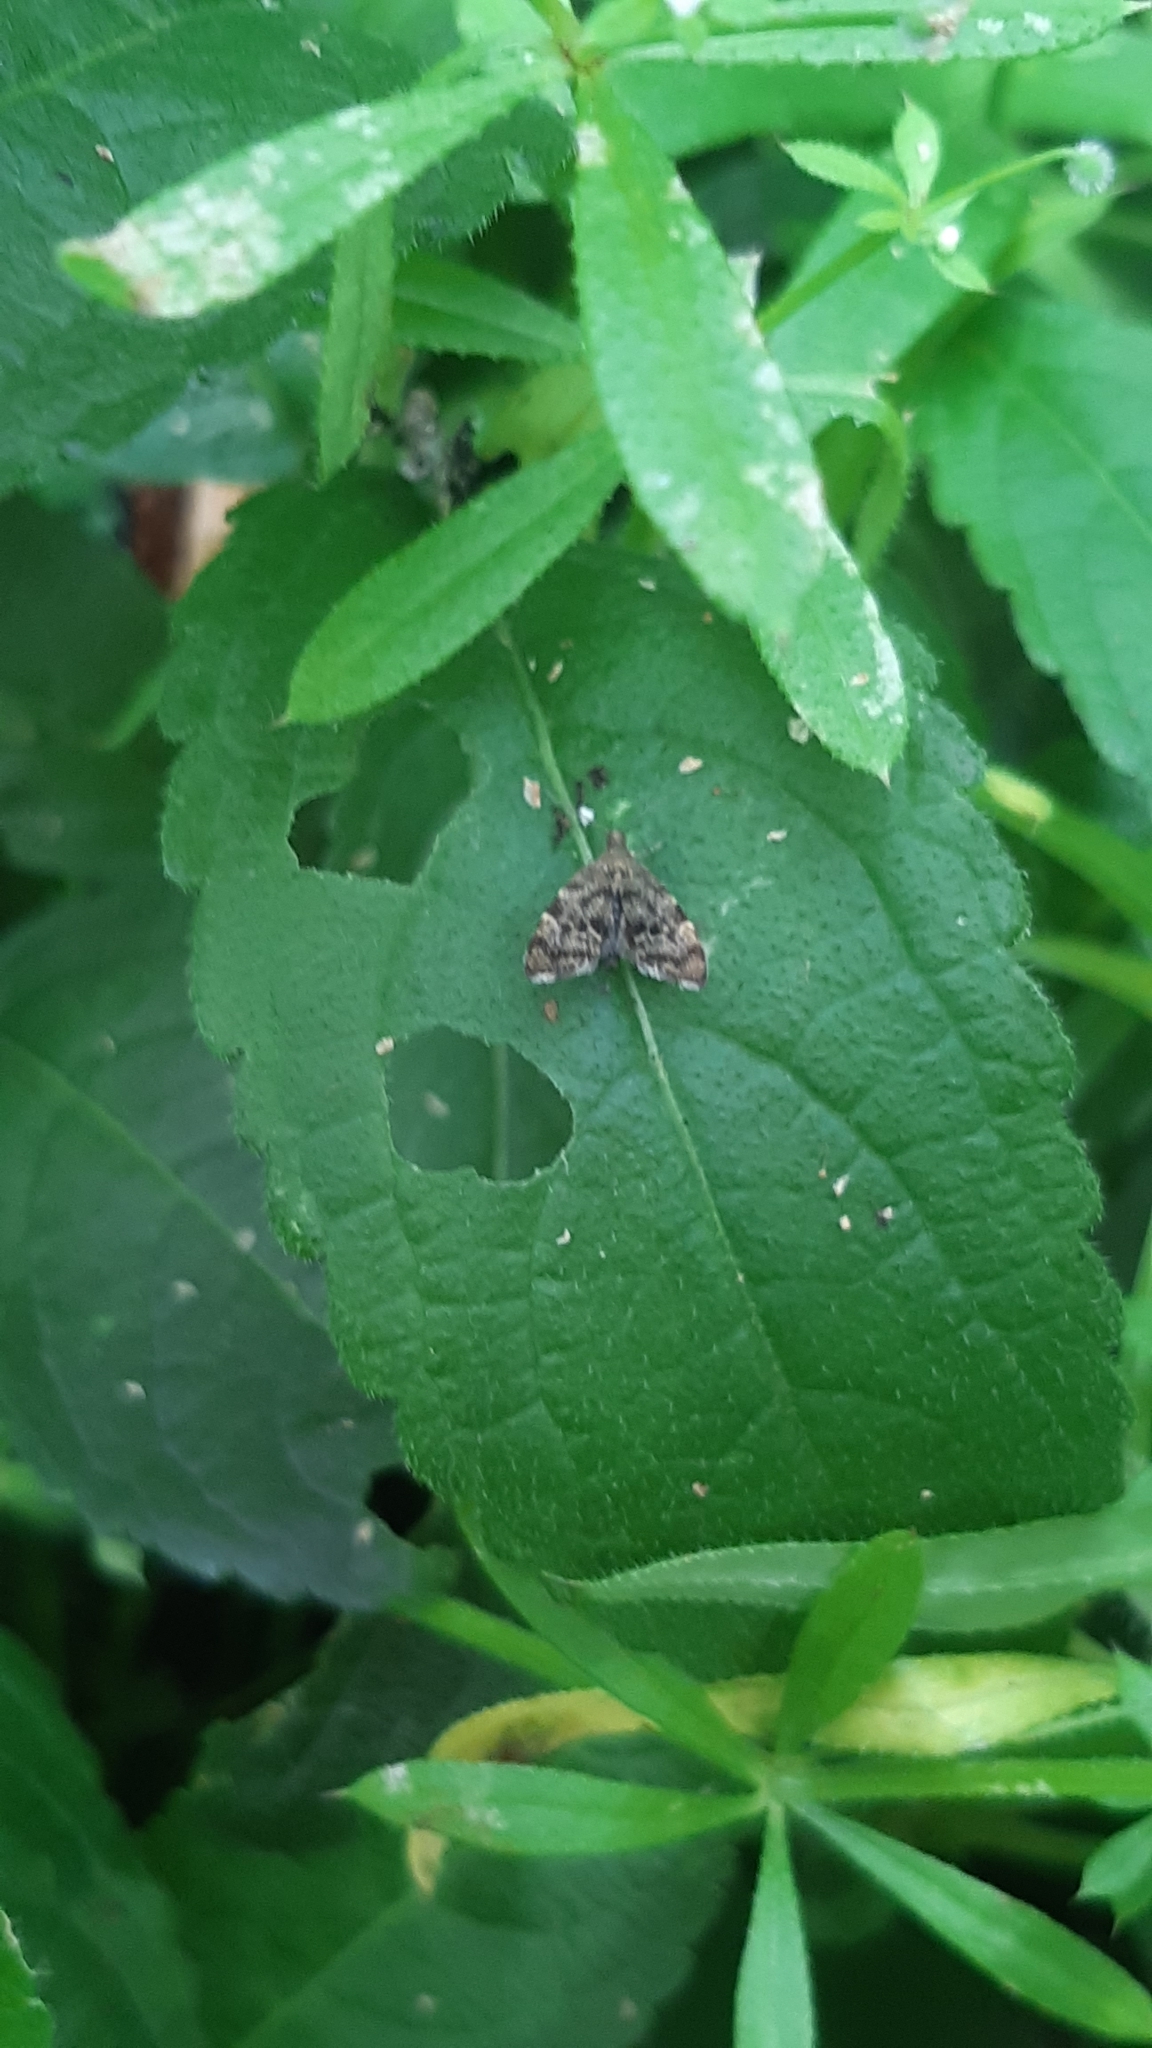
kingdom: Animalia
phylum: Arthropoda
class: Insecta
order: Lepidoptera
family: Choreutidae
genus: Anthophila
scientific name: Anthophila fabriciana
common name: Nettle-tap
